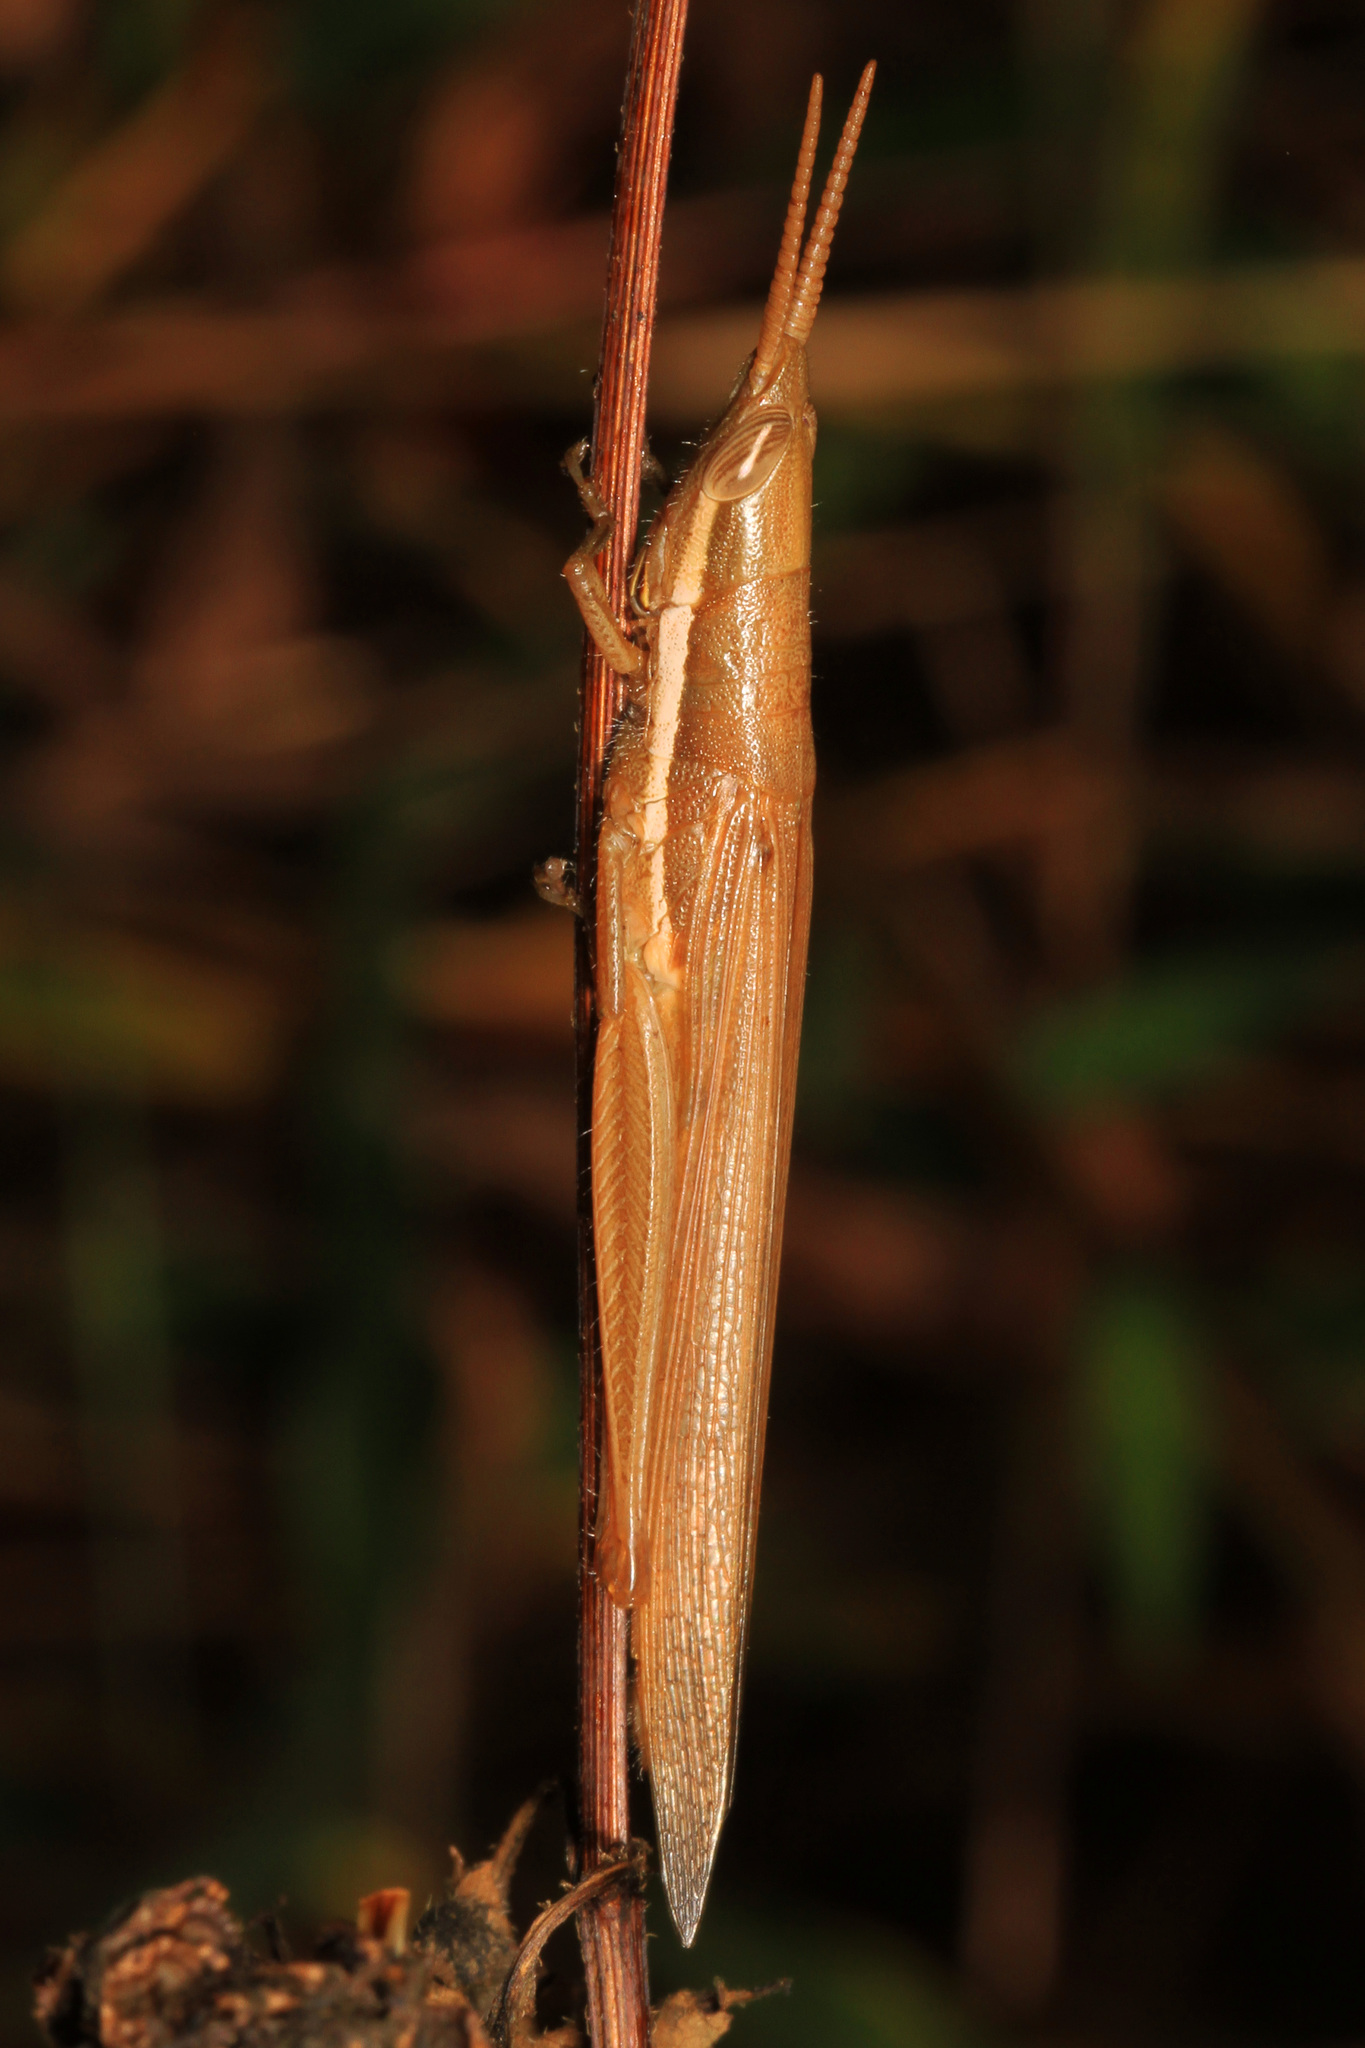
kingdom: Animalia
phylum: Arthropoda
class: Insecta
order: Orthoptera
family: Acrididae
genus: Leptysma
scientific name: Leptysma marginicollis
